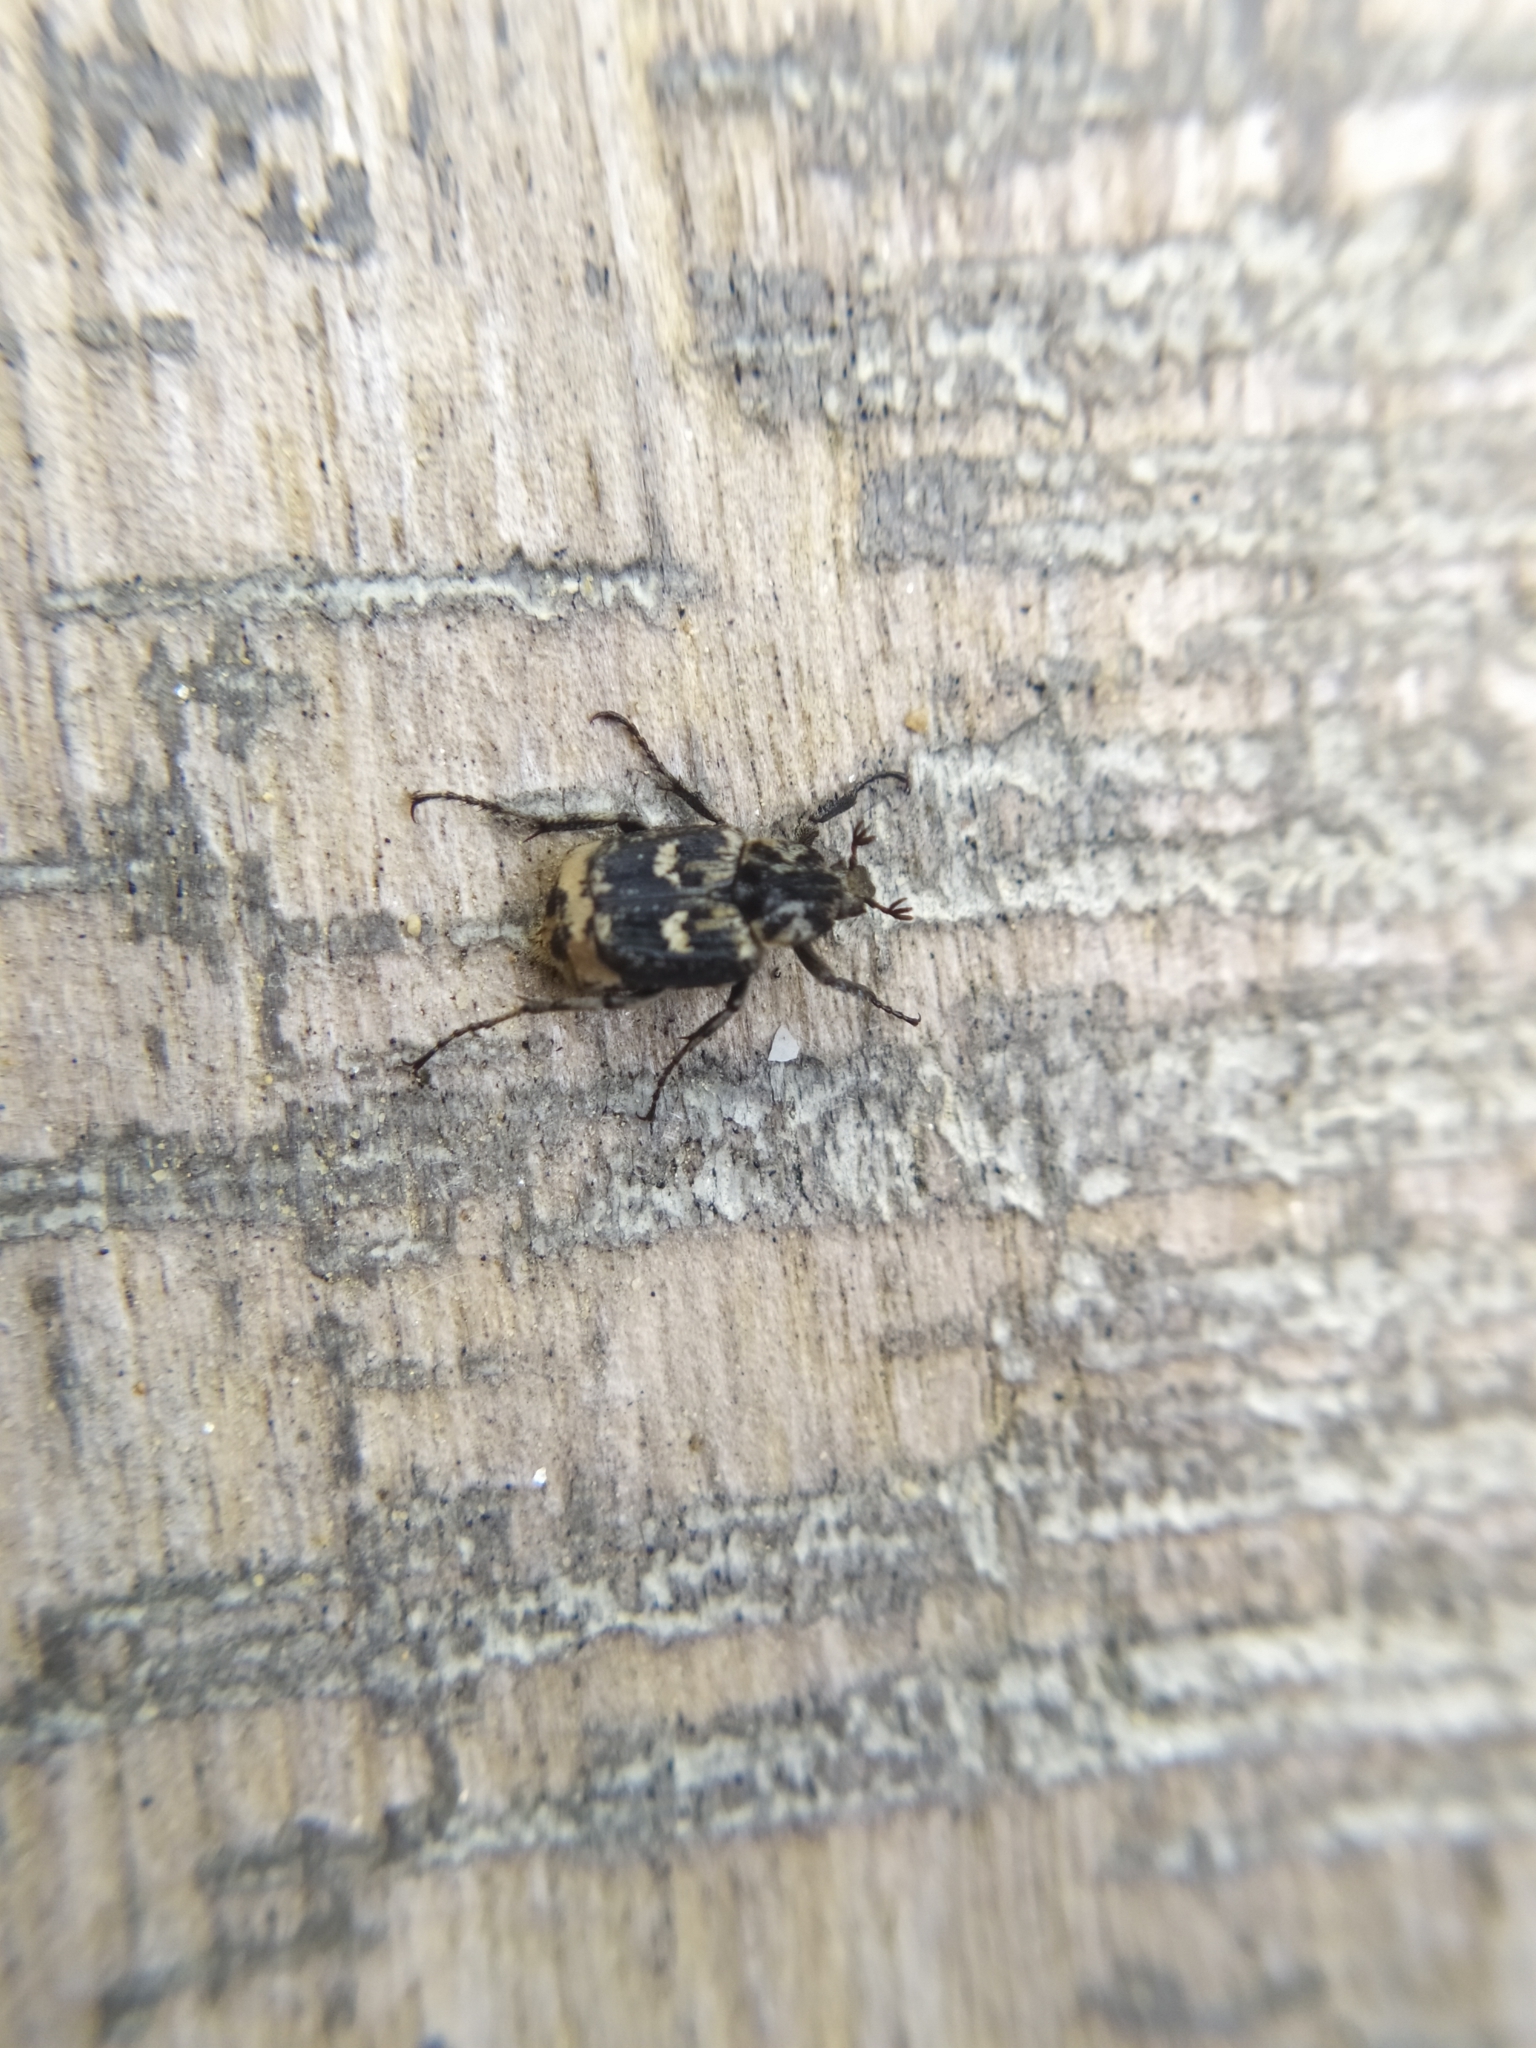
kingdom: Animalia
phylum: Arthropoda
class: Insecta
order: Coleoptera
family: Scarabaeidae
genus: Valgus
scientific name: Valgus hemipterus
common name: Bug flower chafer
